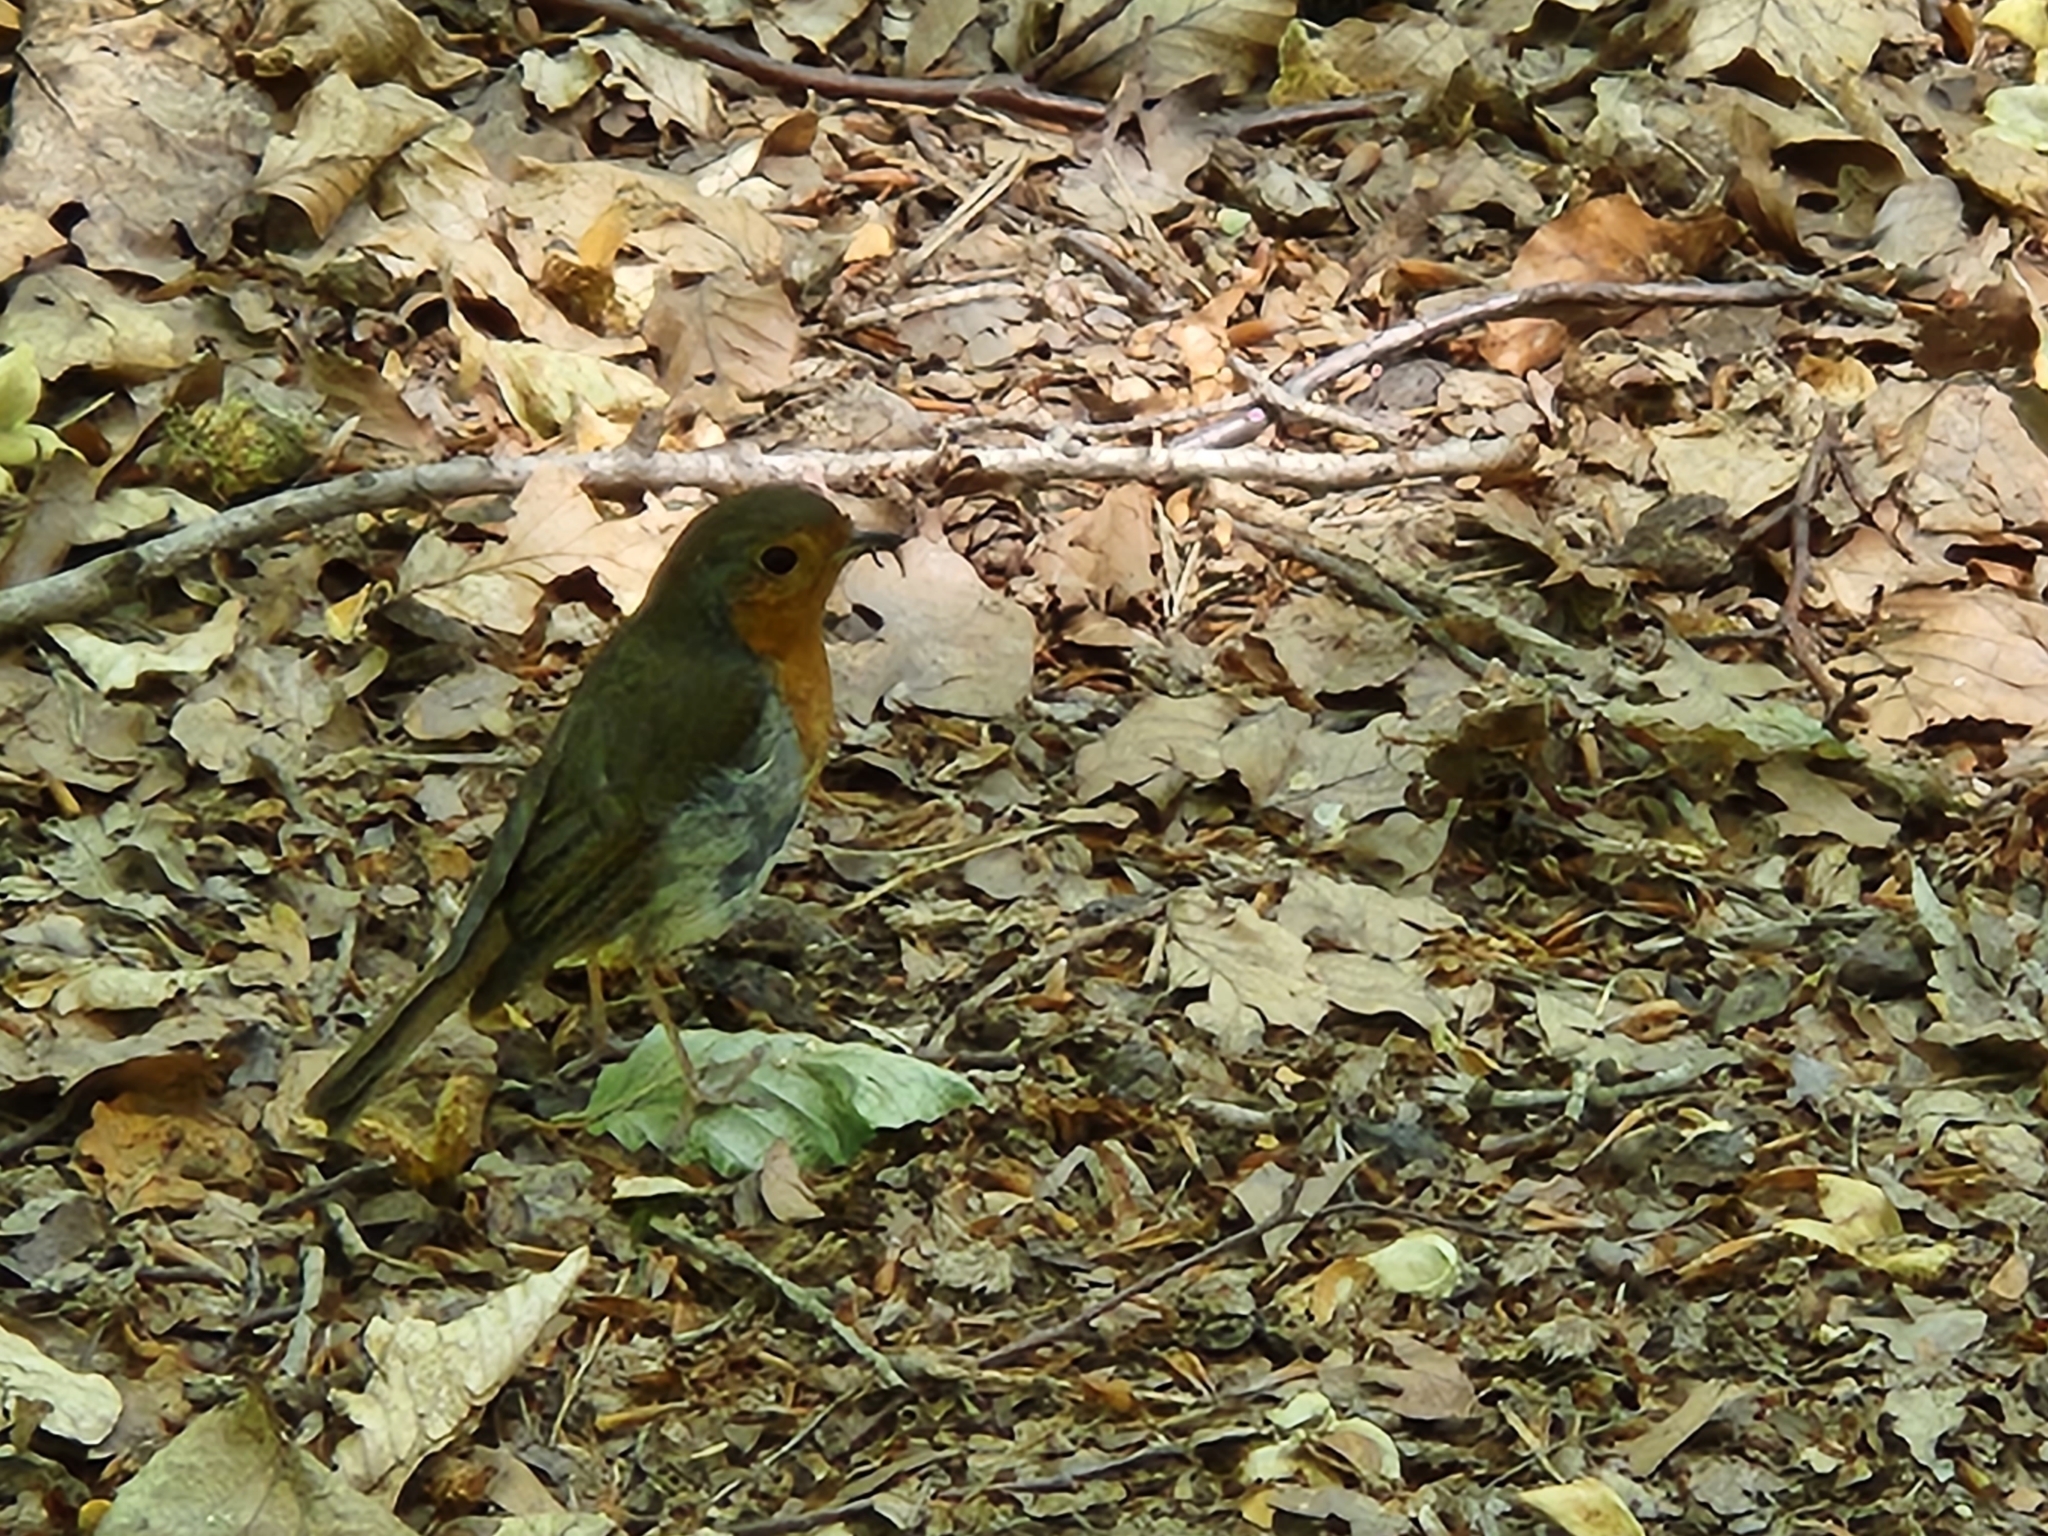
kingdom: Animalia
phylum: Chordata
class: Aves
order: Passeriformes
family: Muscicapidae
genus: Erithacus
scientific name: Erithacus rubecula
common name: European robin
